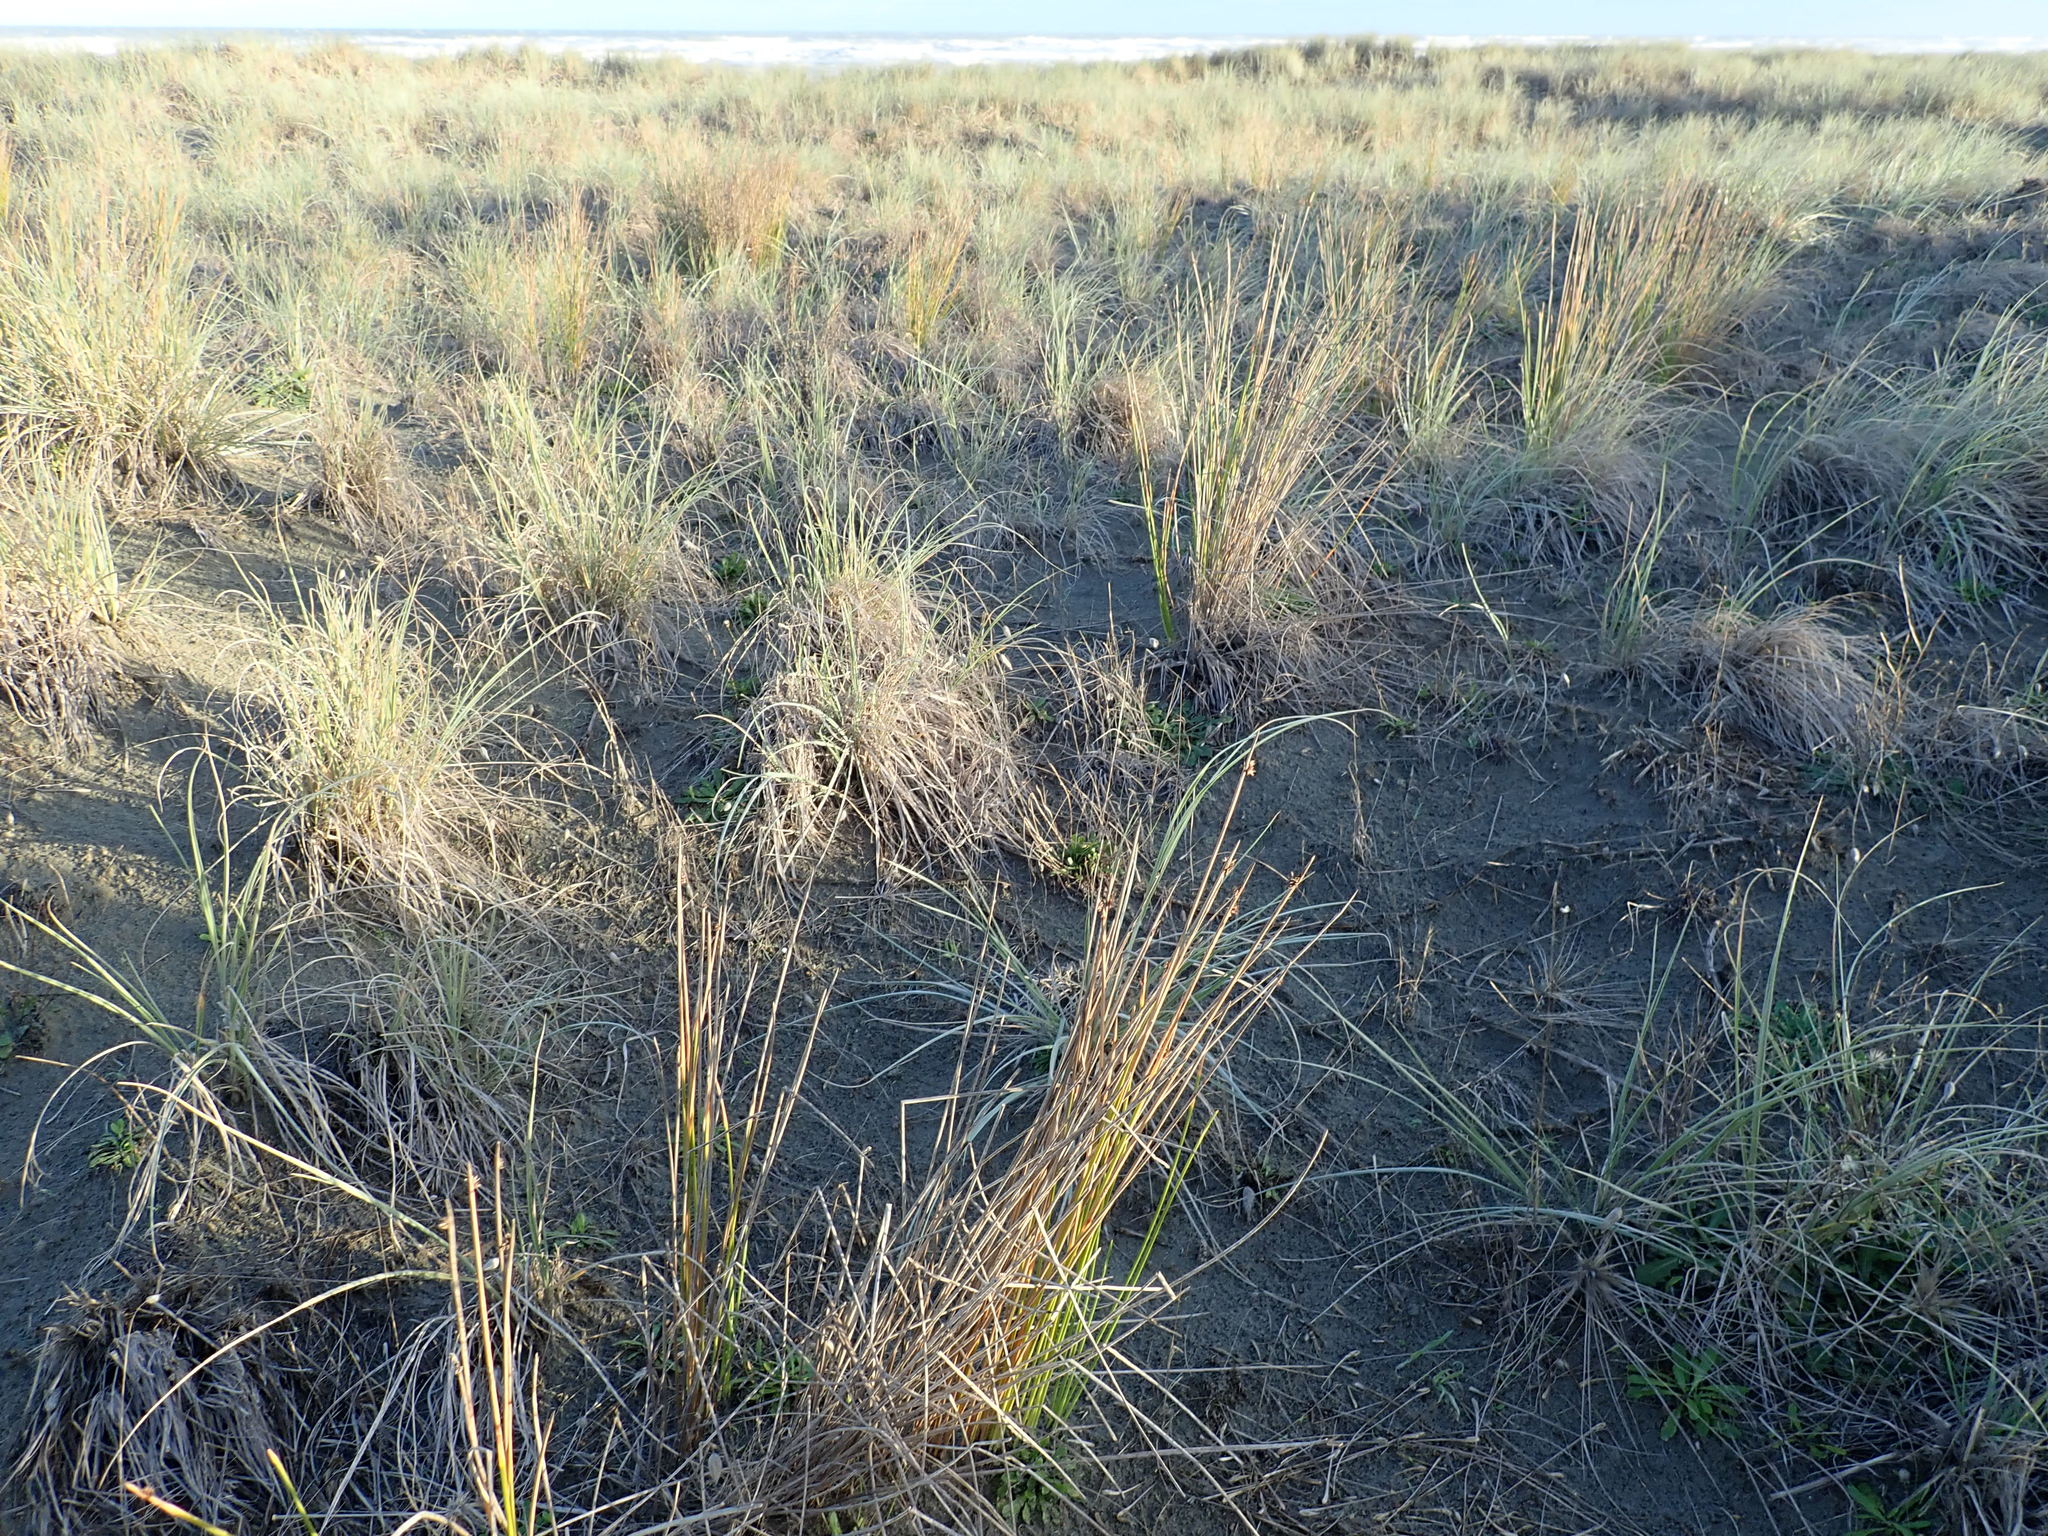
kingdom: Plantae
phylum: Tracheophyta
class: Liliopsida
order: Poales
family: Cyperaceae
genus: Ficinia
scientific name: Ficinia nodosa
